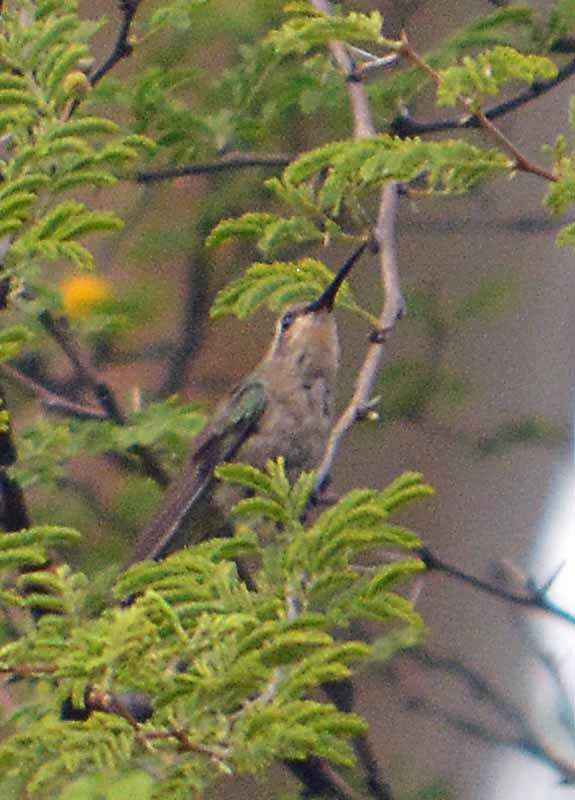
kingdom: Animalia
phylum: Chordata
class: Aves
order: Apodiformes
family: Trochilidae
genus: Cynanthus
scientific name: Cynanthus latirostris
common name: Broad-billed hummingbird
